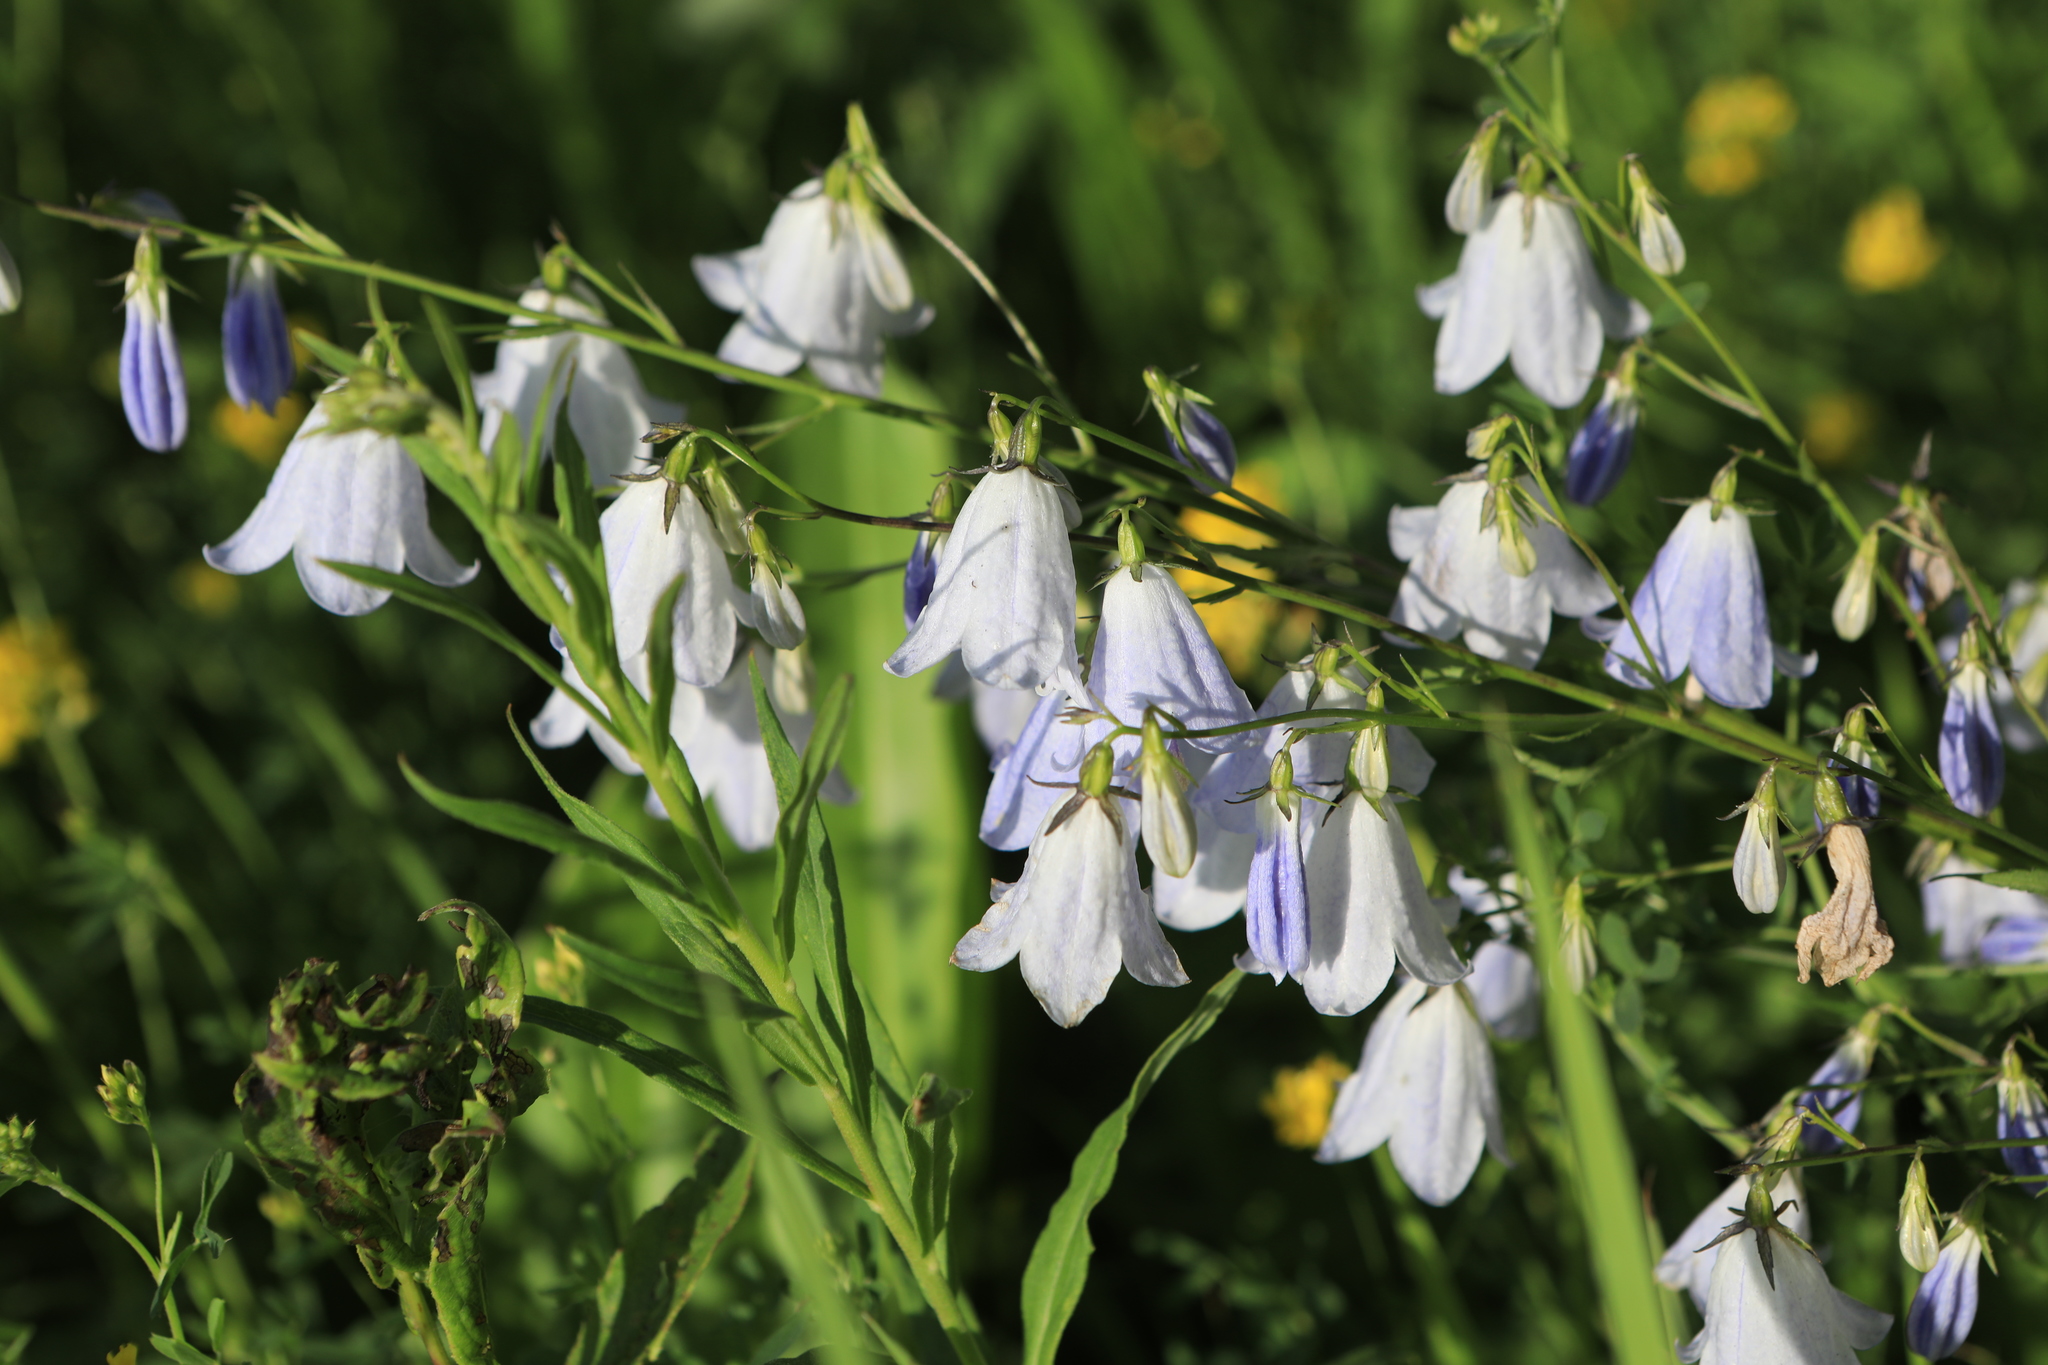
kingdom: Plantae
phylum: Tracheophyta
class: Magnoliopsida
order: Asterales
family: Campanulaceae
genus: Adenophora
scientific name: Adenophora liliifolia
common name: Lilyleaf ladybells
